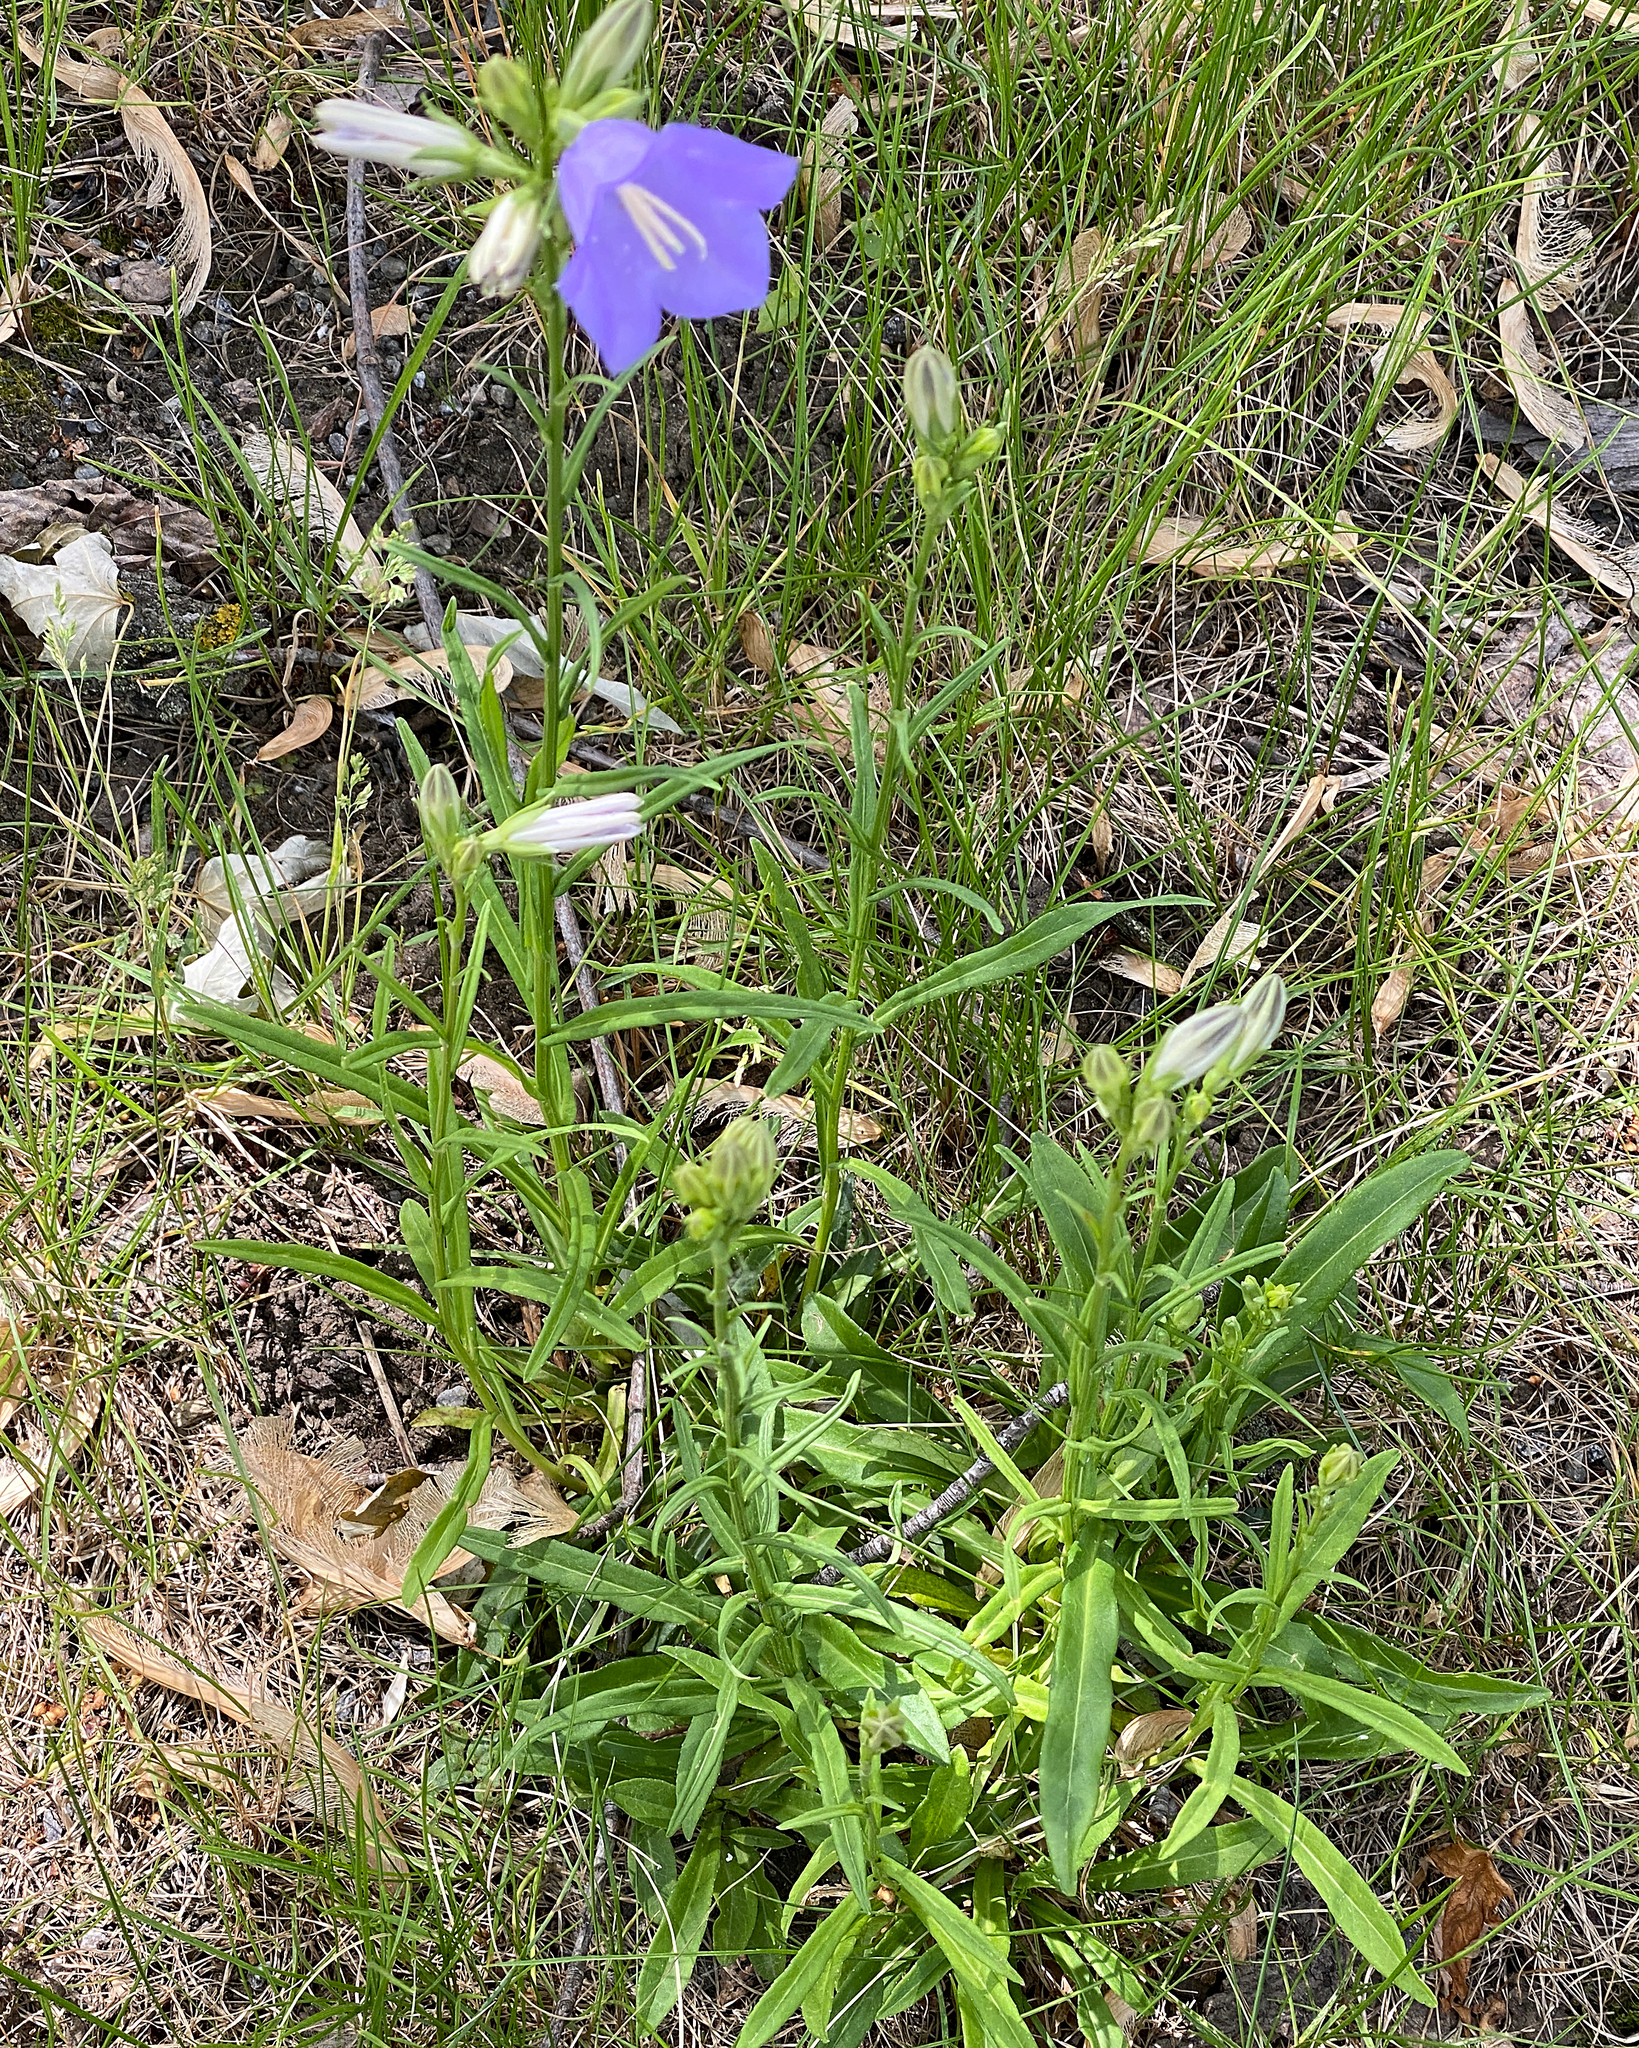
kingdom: Plantae
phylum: Tracheophyta
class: Magnoliopsida
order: Asterales
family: Campanulaceae
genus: Campanula
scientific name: Campanula persicifolia
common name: Peach-leaved bellflower
